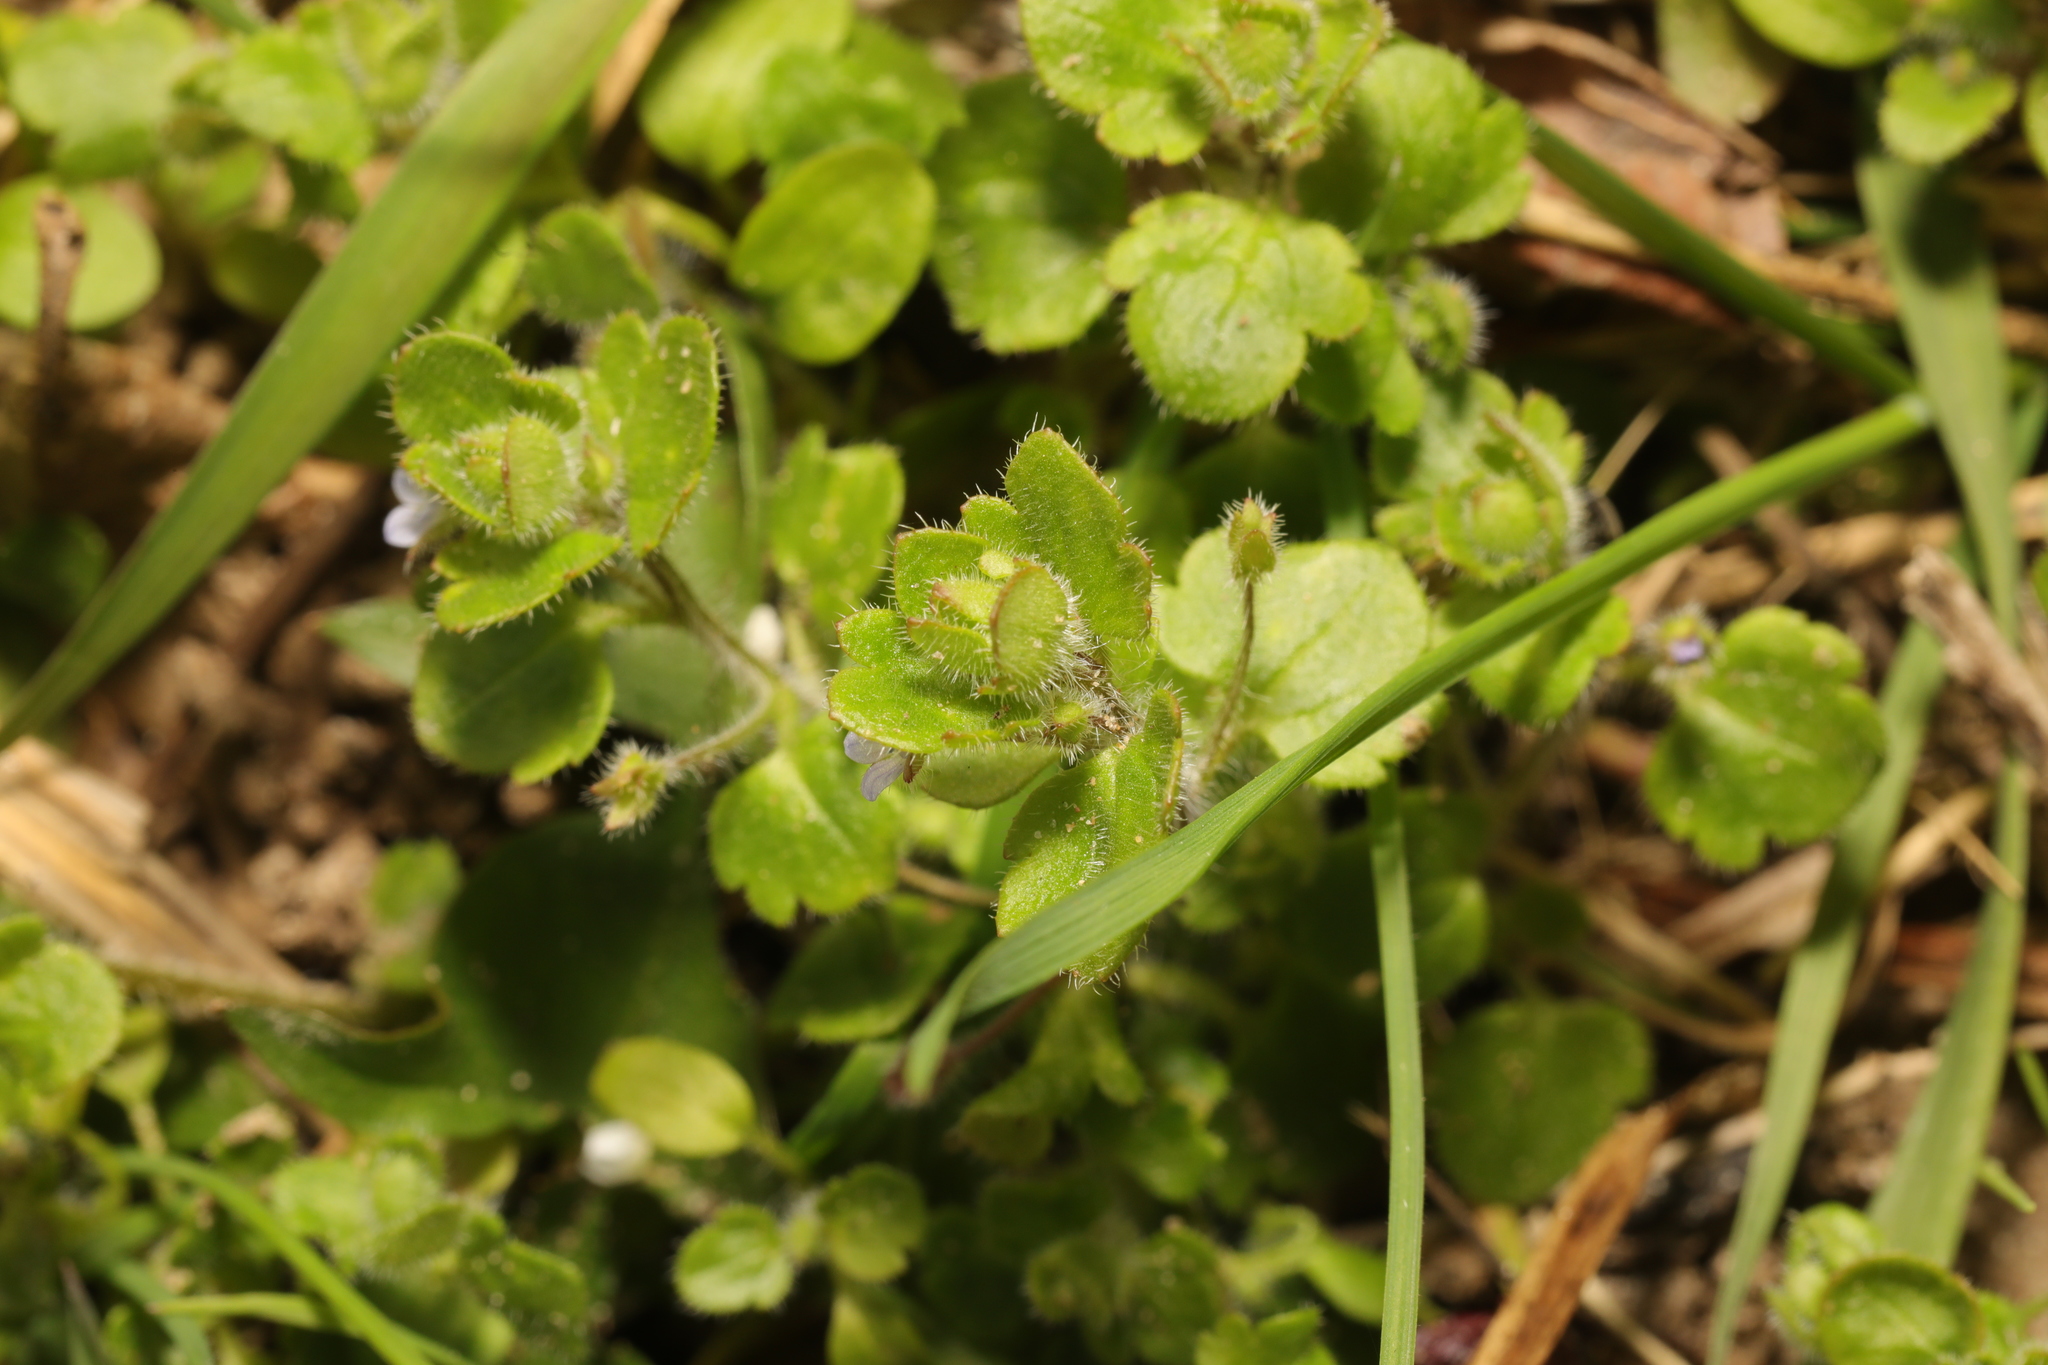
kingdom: Plantae
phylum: Tracheophyta
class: Magnoliopsida
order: Lamiales
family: Plantaginaceae
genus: Veronica
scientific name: Veronica sublobata
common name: False ivy-leaved speedwell
